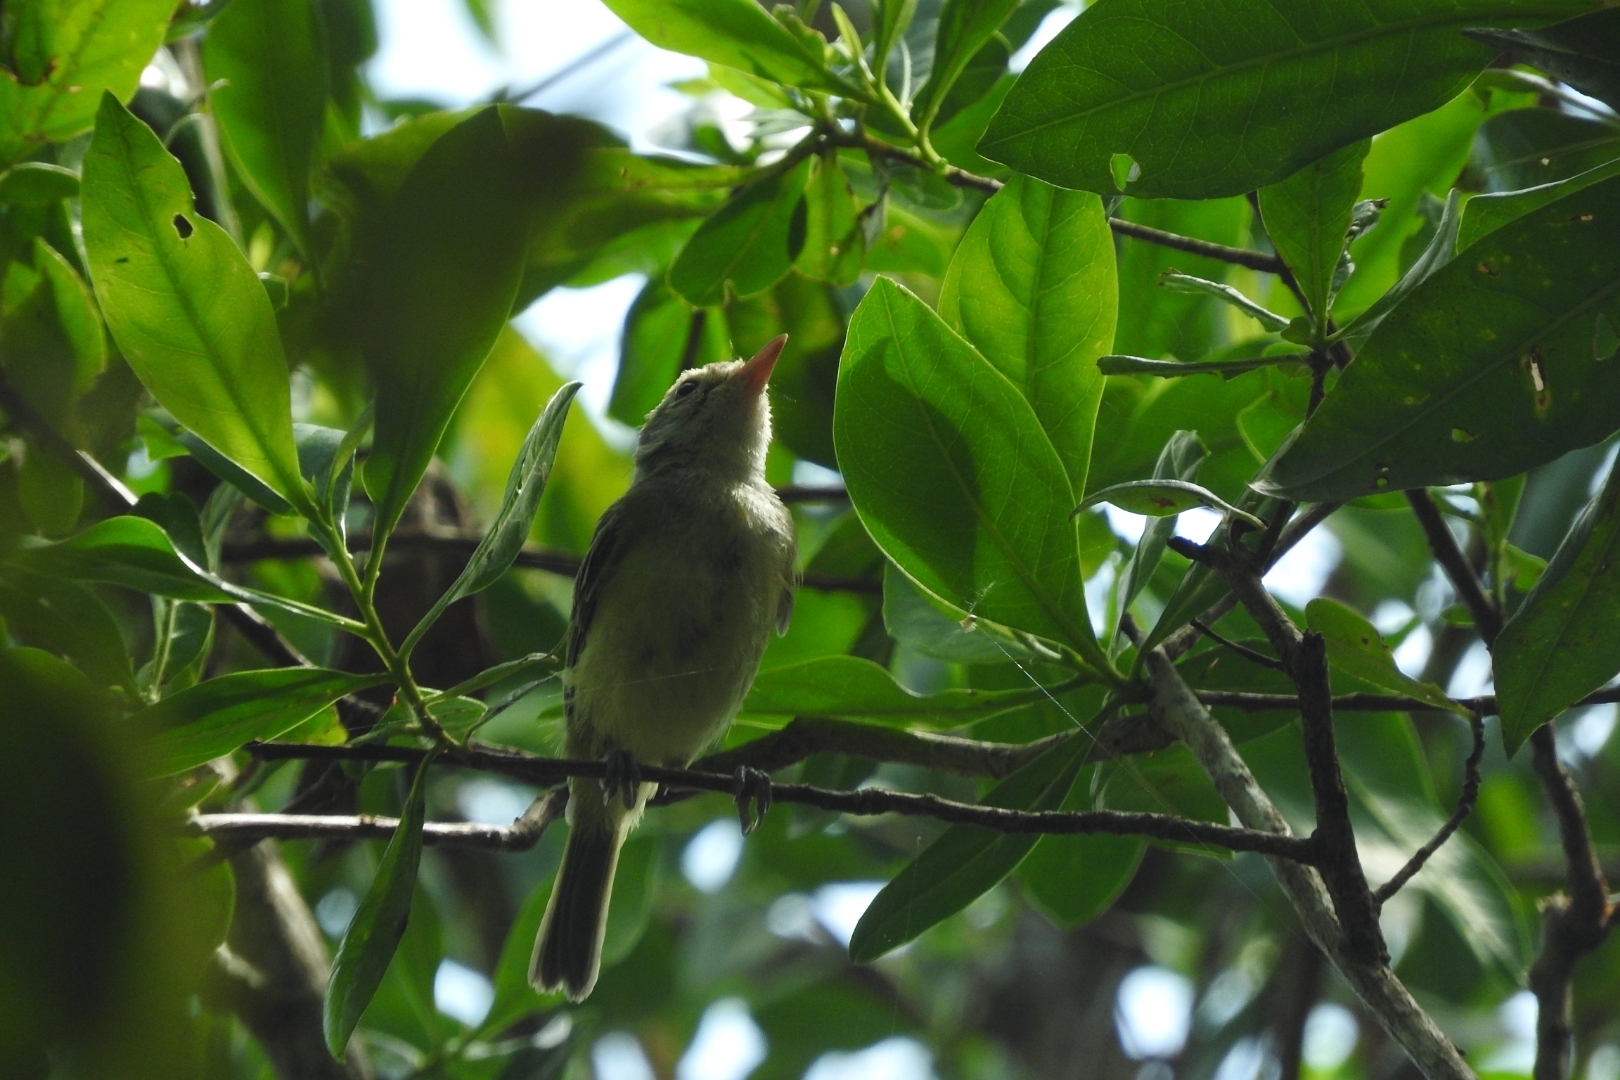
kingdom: Animalia
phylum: Chordata
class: Aves
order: Passeriformes
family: Vireonidae
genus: Vireo
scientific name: Vireo flavoviridis
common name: Yellow-green vireo
